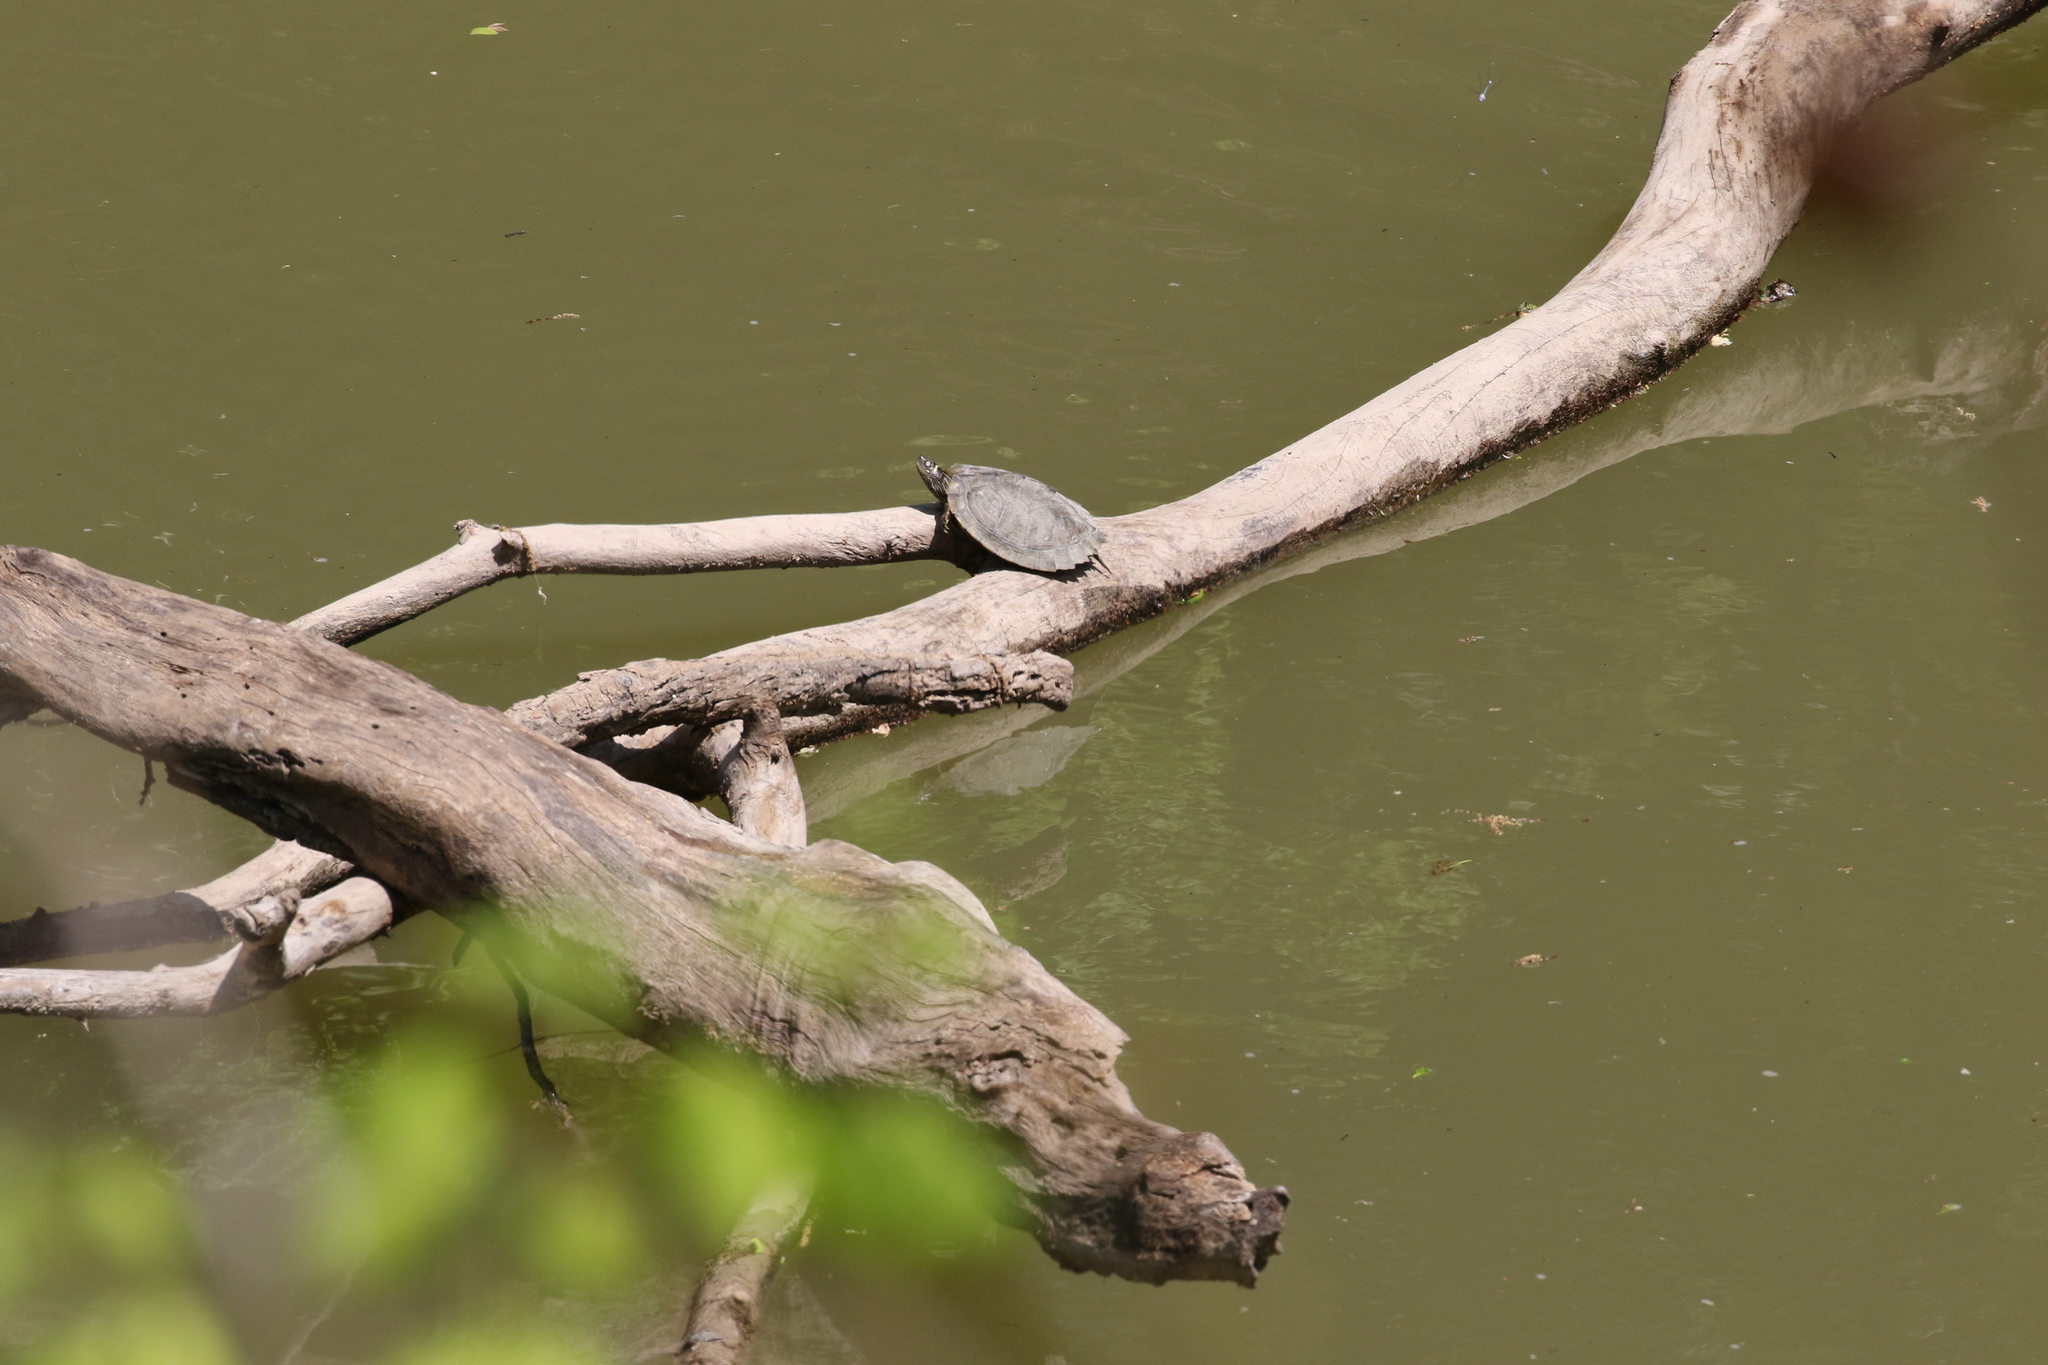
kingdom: Animalia
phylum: Chordata
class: Testudines
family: Emydidae
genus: Graptemys
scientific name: Graptemys pseudogeographica
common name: False map turtle
